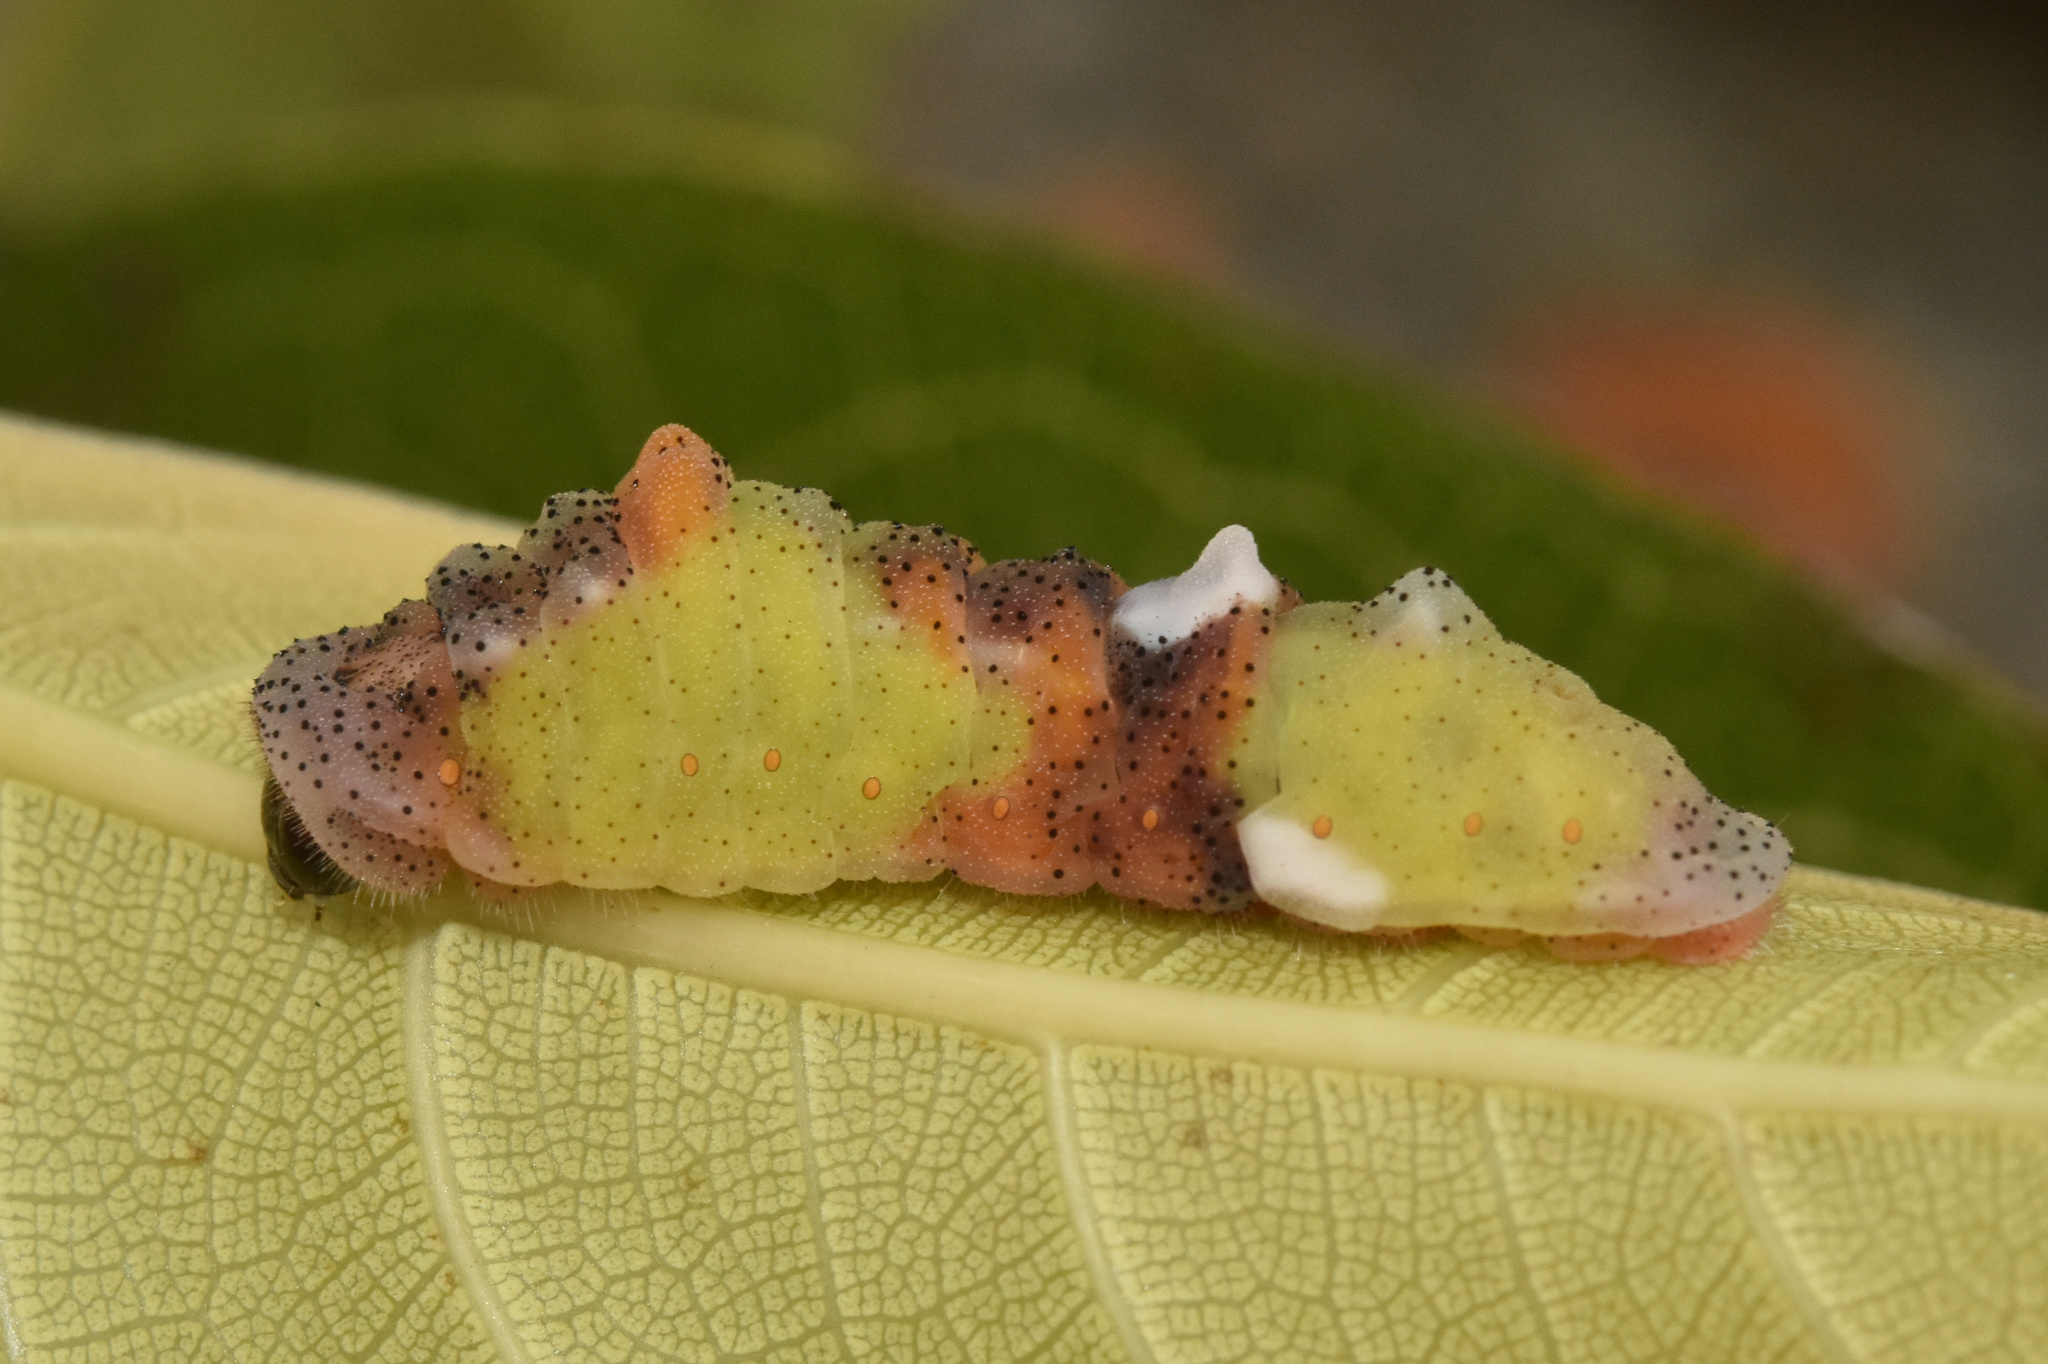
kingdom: Animalia
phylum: Arthropoda
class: Insecta
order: Lepidoptera
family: Lycaenidae
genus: Myrina
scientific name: Myrina silenus
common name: Amber fig-tree blue
